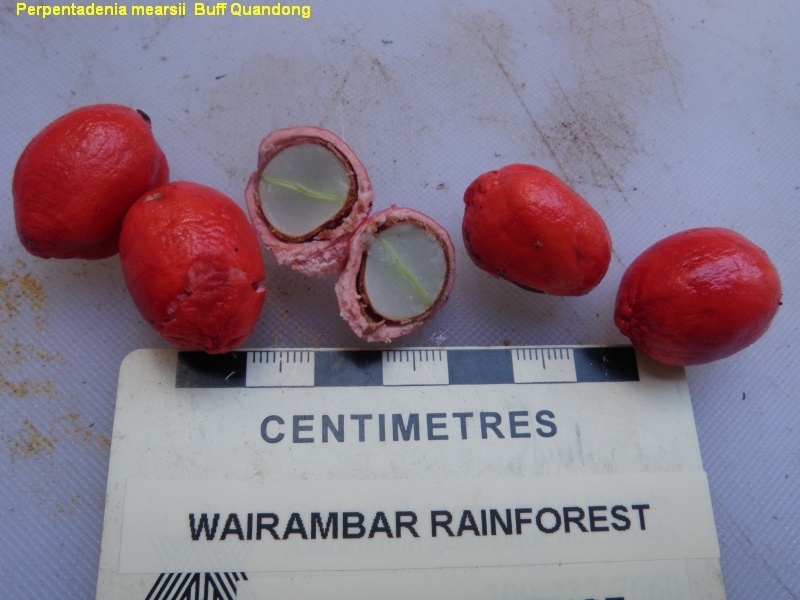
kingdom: Plantae
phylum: Tracheophyta
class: Magnoliopsida
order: Oxalidales
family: Elaeocarpaceae
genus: Peripentadenia
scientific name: Peripentadenia mearsii
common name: Grey quandong
